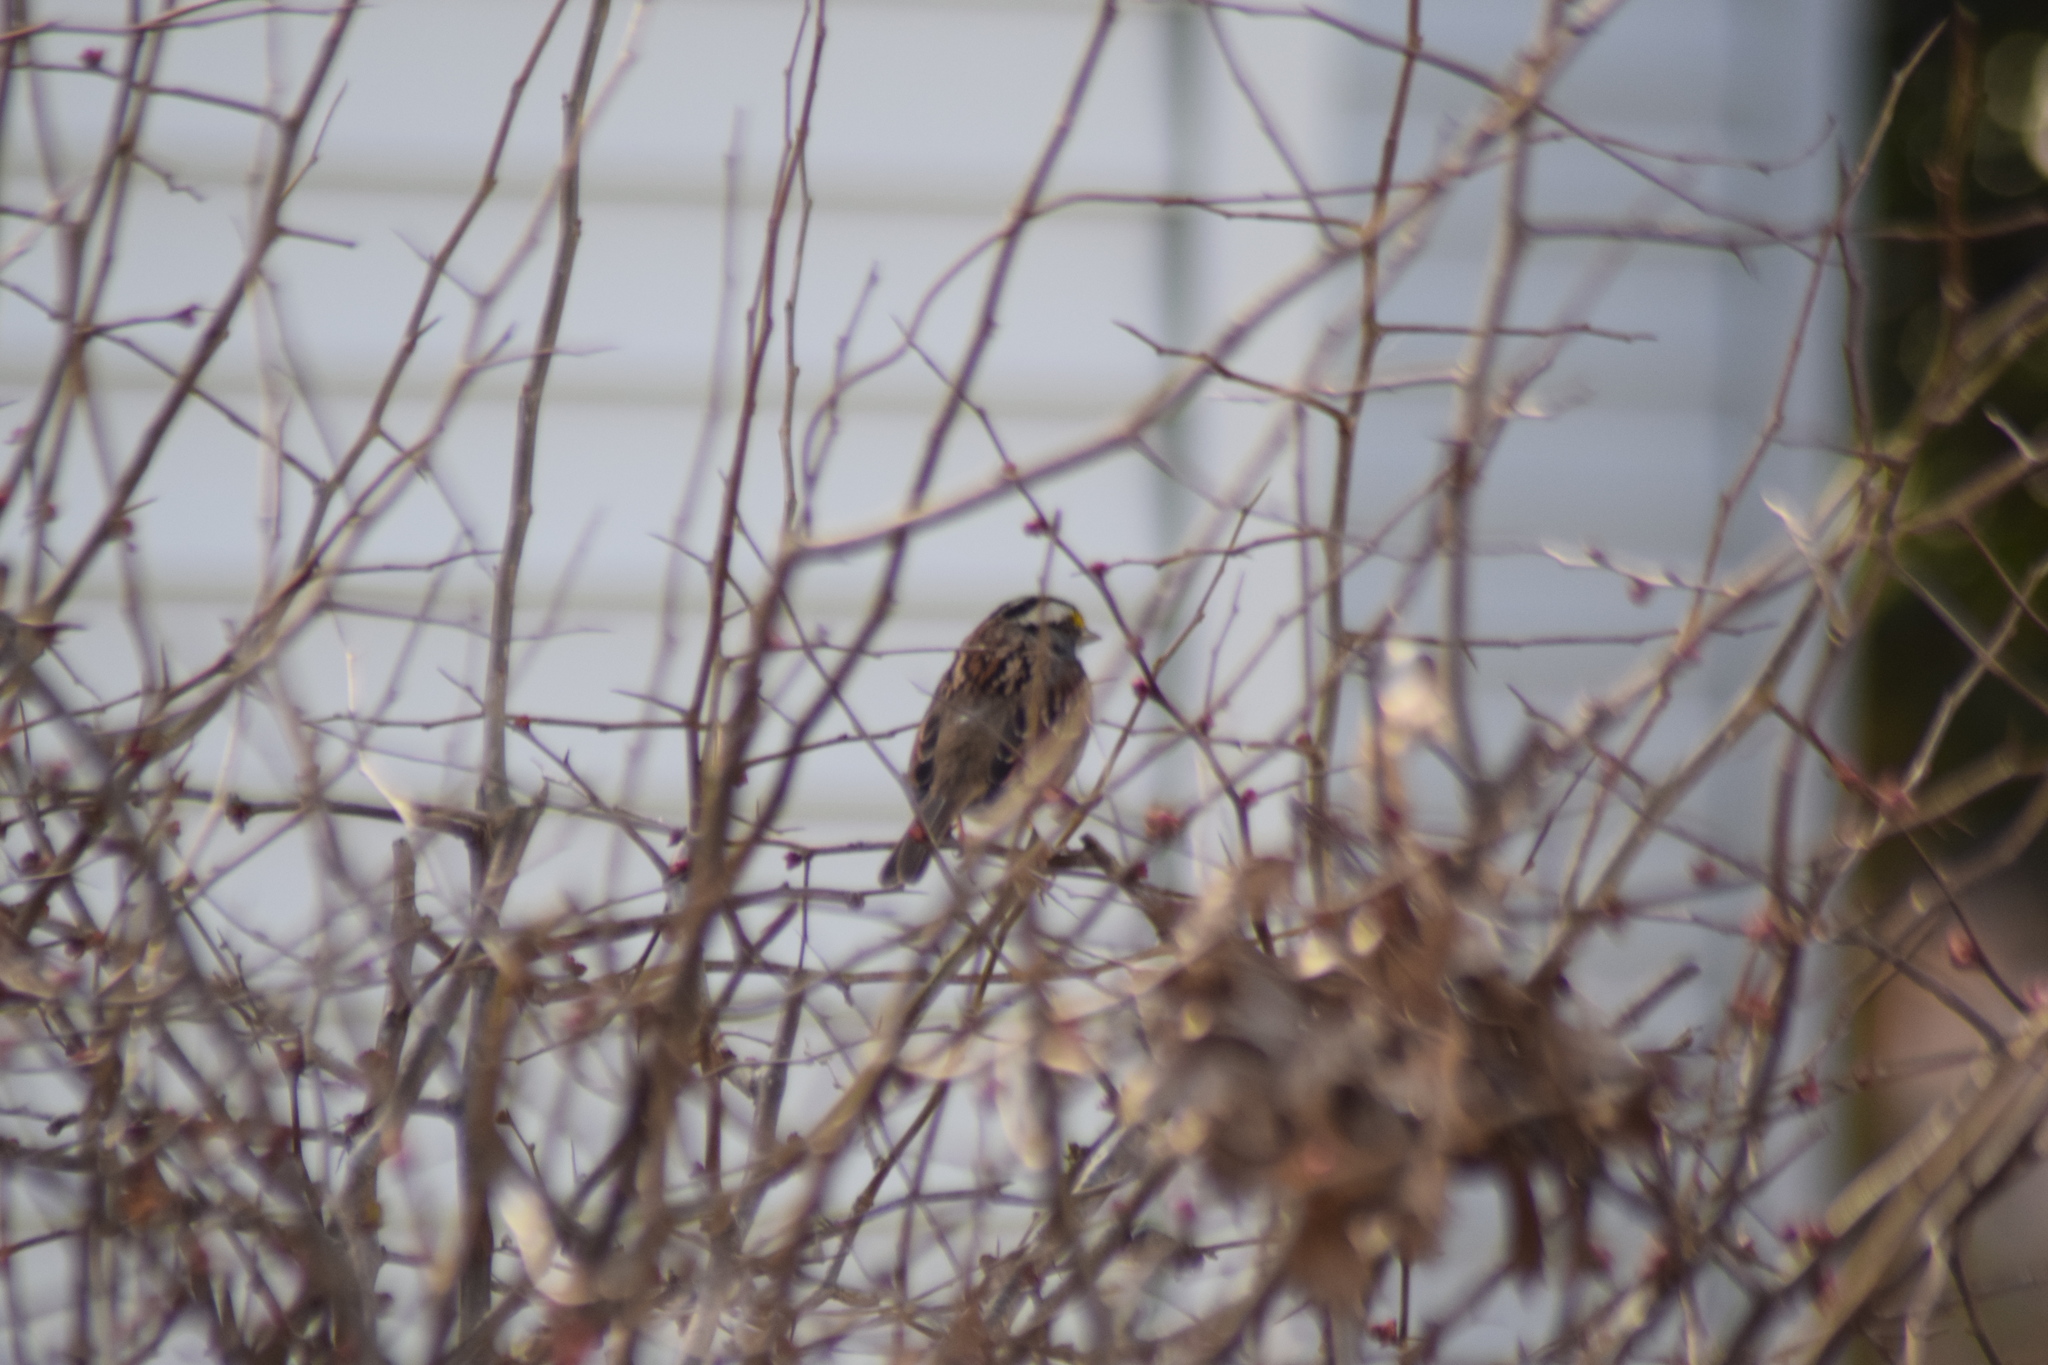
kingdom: Animalia
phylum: Chordata
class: Aves
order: Passeriformes
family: Passerellidae
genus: Zonotrichia
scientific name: Zonotrichia albicollis
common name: White-throated sparrow
